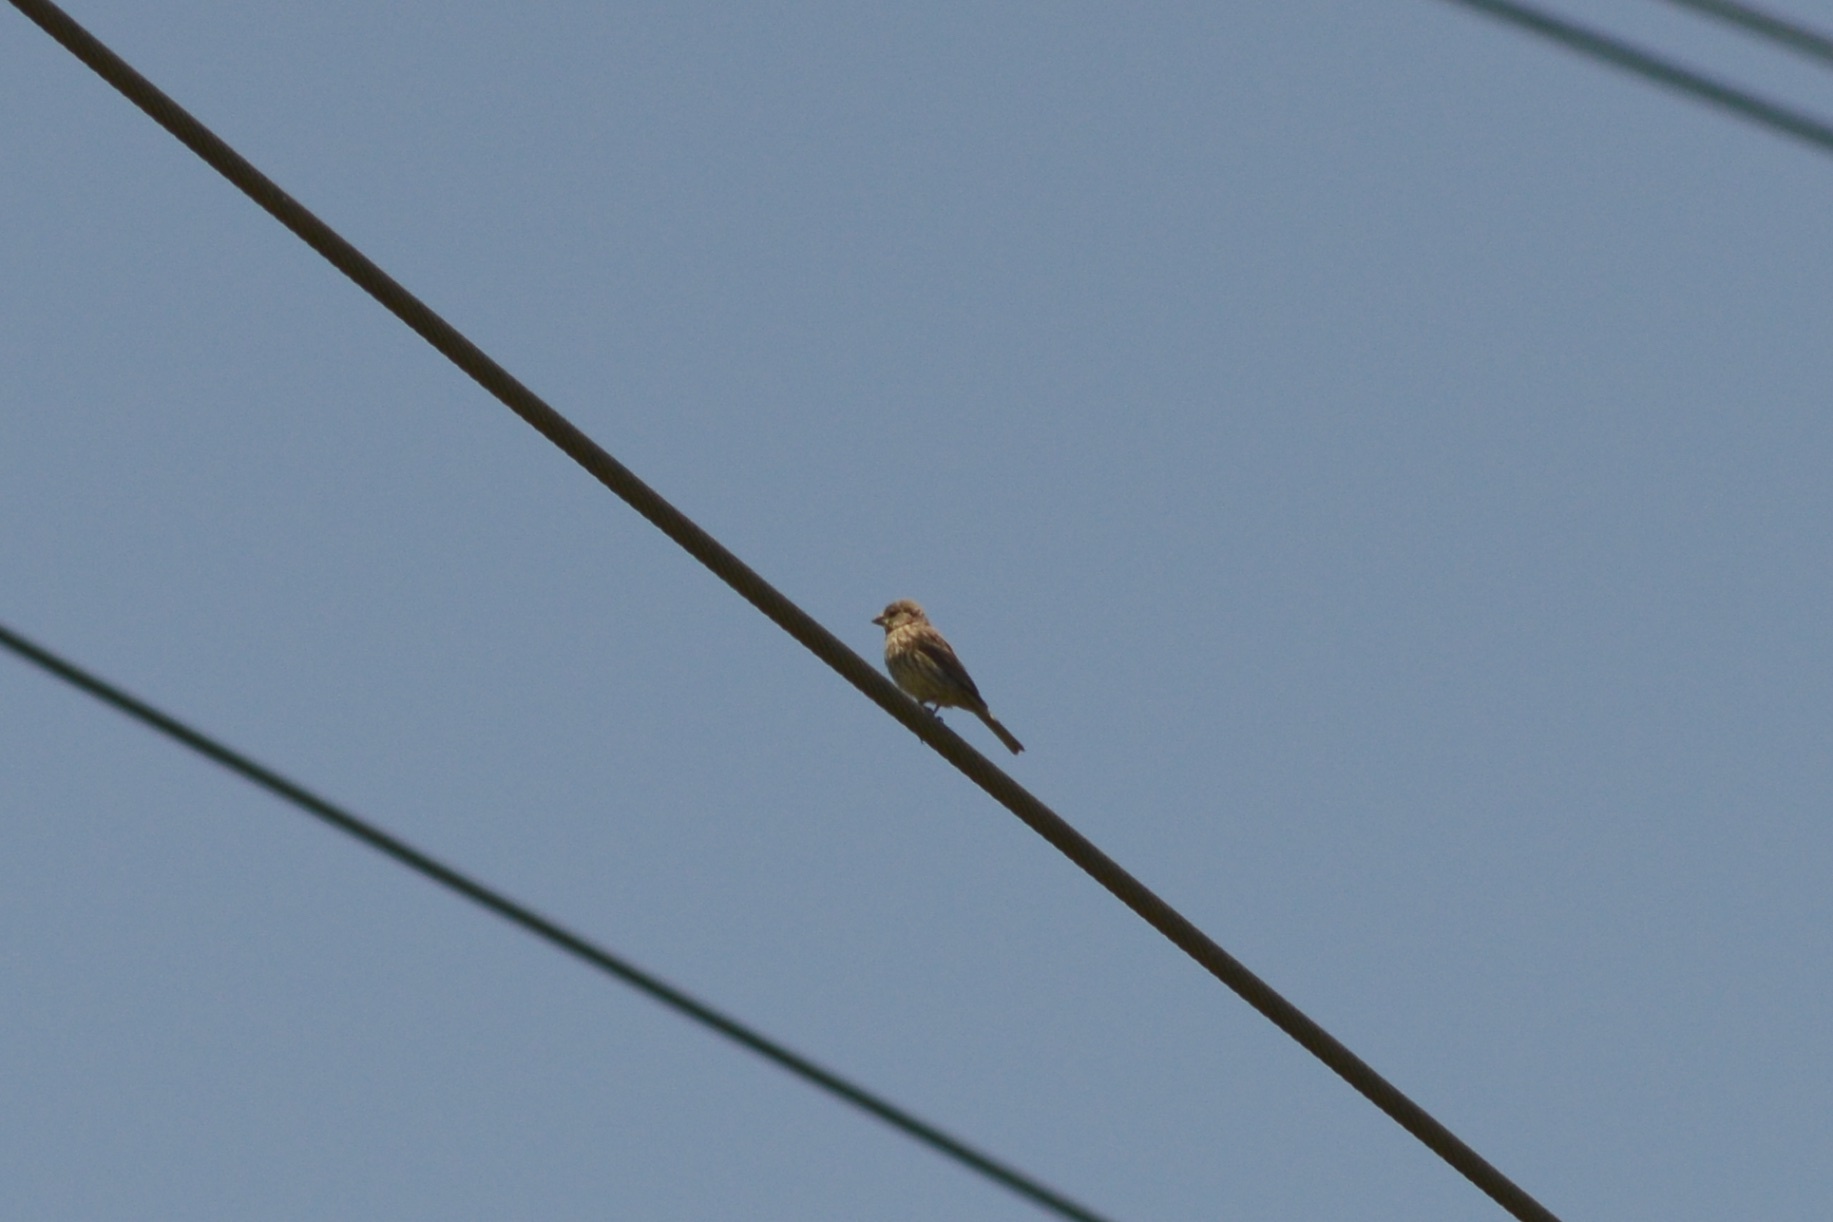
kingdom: Animalia
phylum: Chordata
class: Aves
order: Passeriformes
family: Fringillidae
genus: Haemorhous
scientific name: Haemorhous mexicanus
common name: House finch
